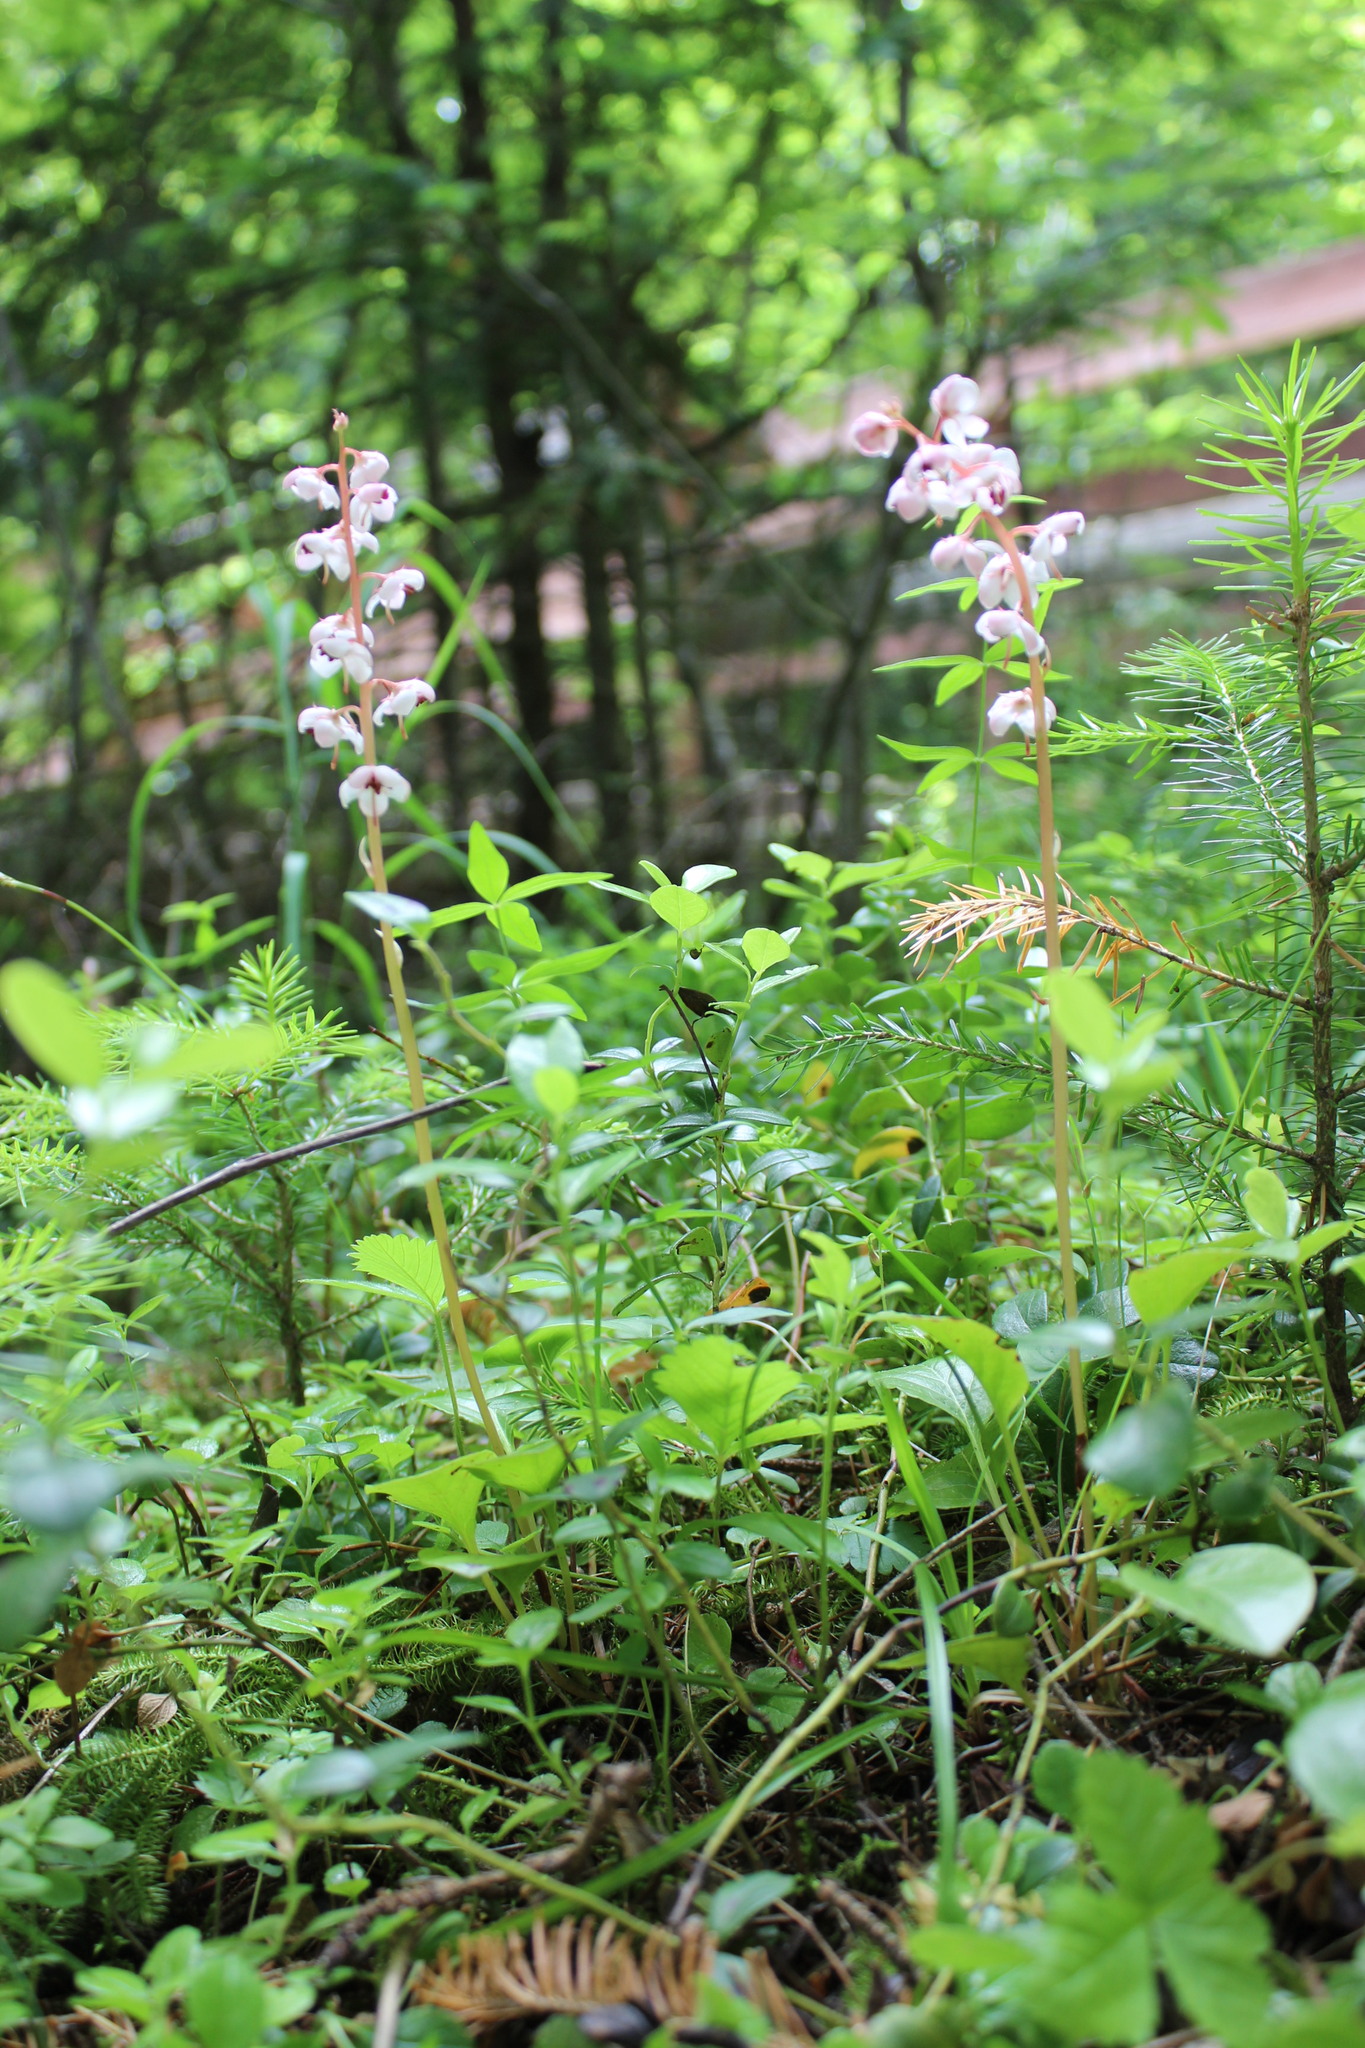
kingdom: Plantae
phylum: Tracheophyta
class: Magnoliopsida
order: Ericales
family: Ericaceae
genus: Pyrola
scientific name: Pyrola asarifolia
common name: Bog wintergreen
